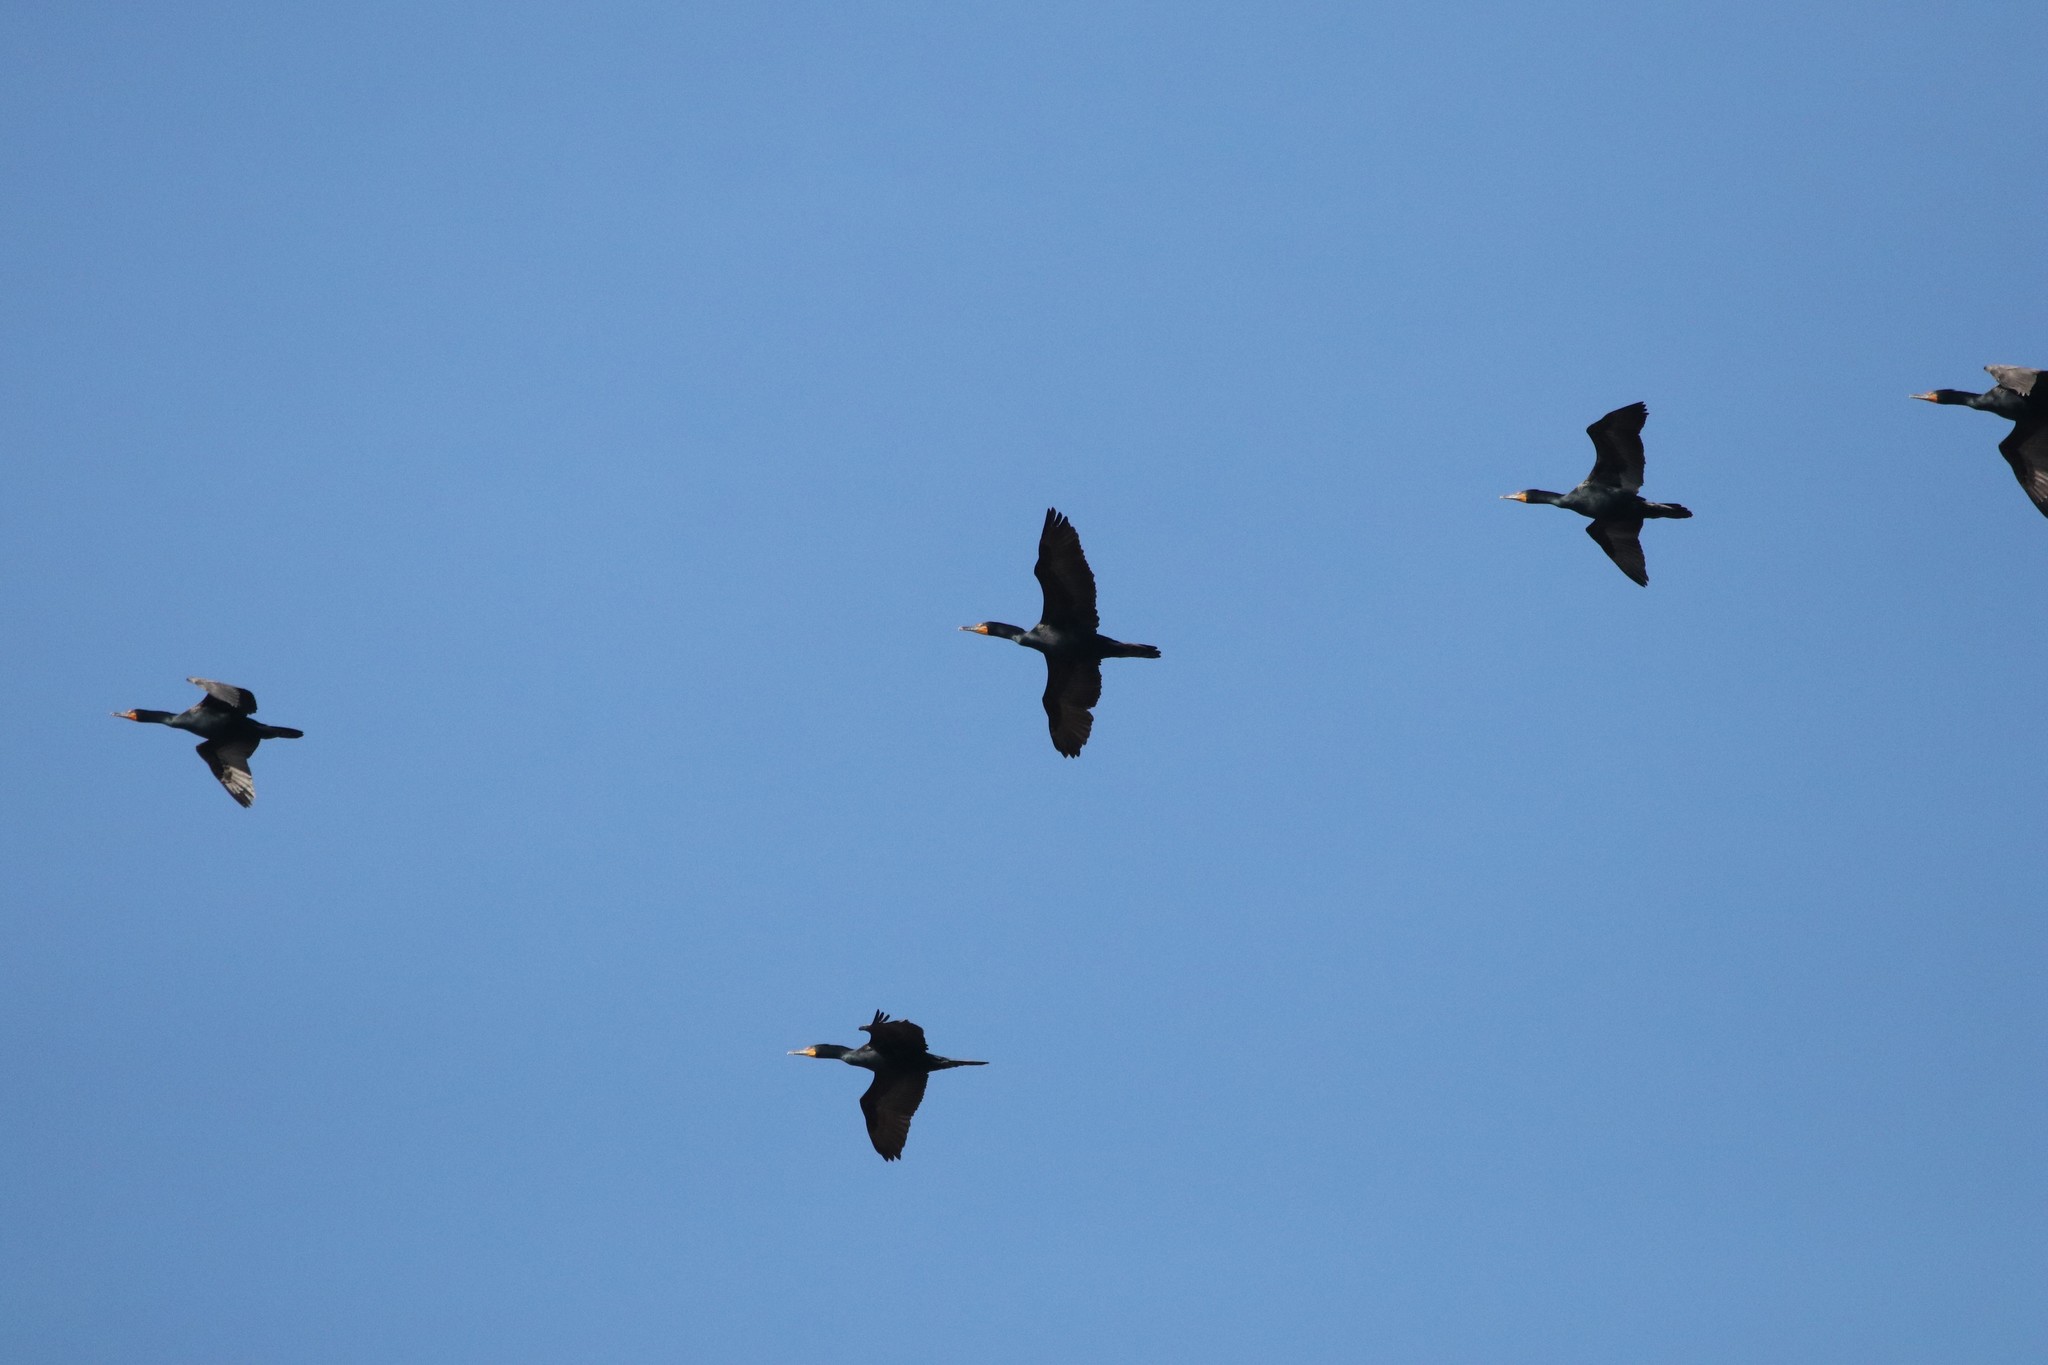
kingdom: Animalia
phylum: Chordata
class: Aves
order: Suliformes
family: Phalacrocoracidae
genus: Phalacrocorax
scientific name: Phalacrocorax auritus
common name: Double-crested cormorant
